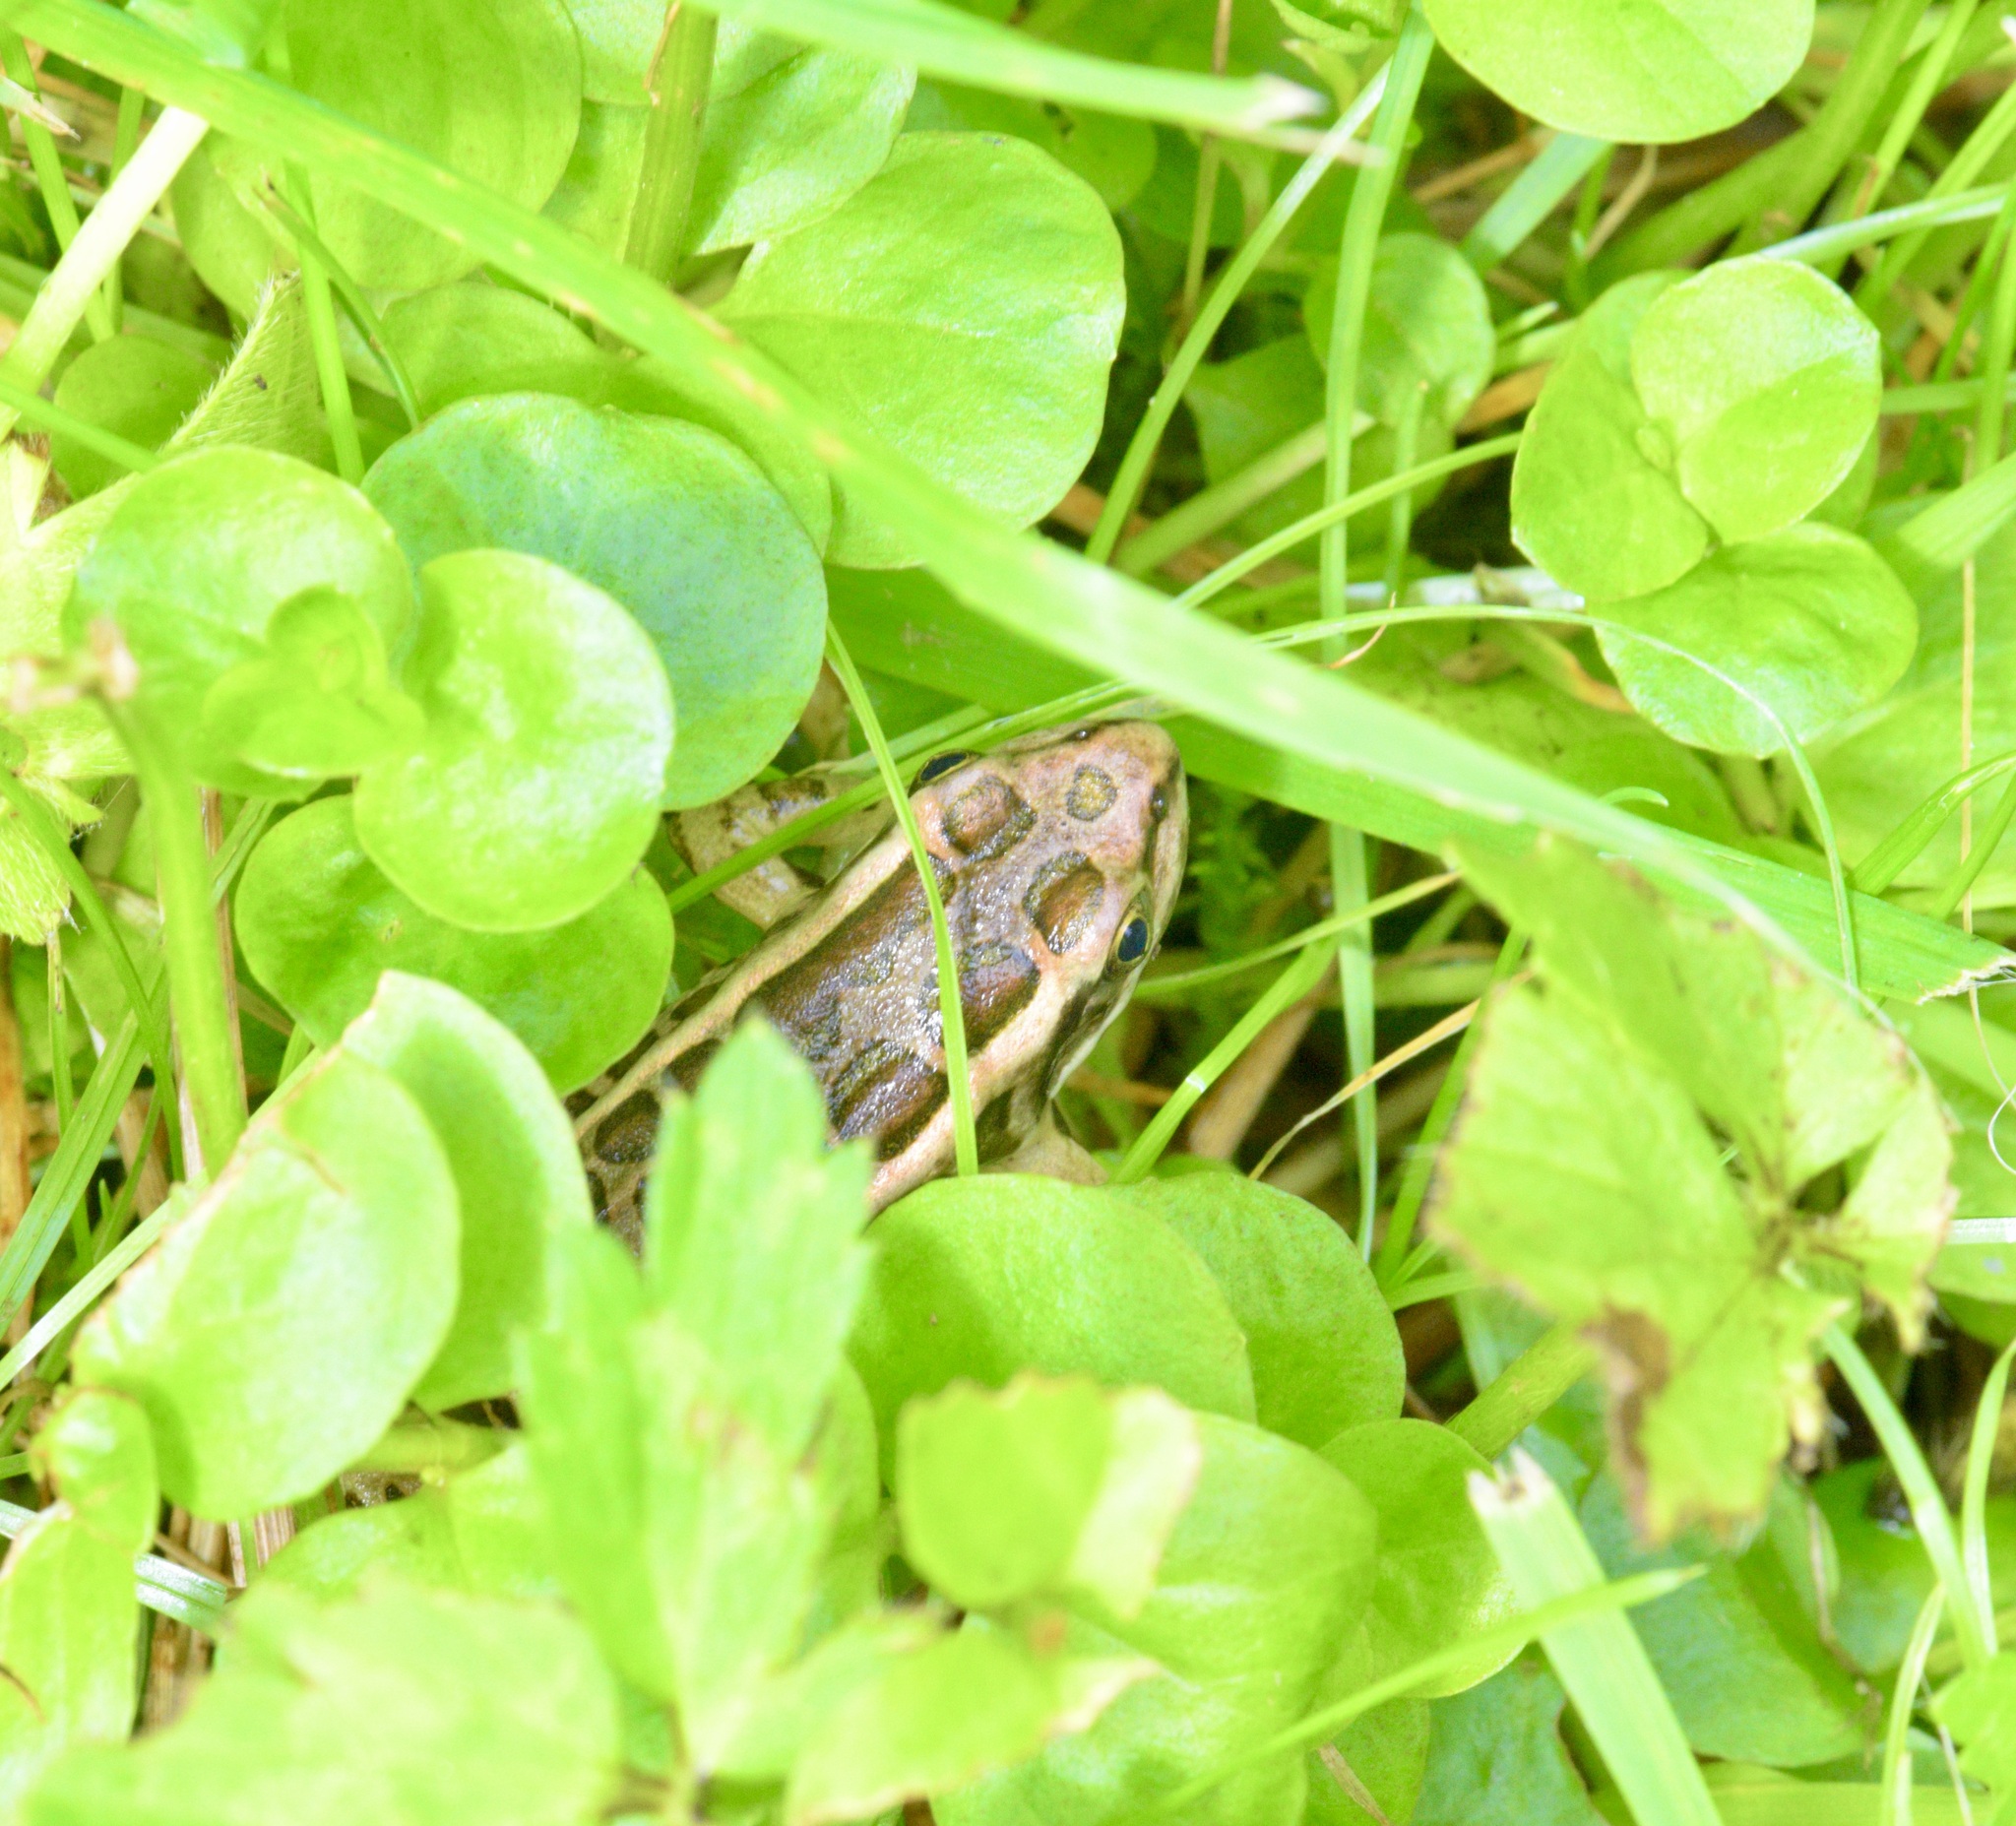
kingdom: Animalia
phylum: Chordata
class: Amphibia
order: Anura
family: Ranidae
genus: Lithobates
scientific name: Lithobates palustris
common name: Pickerel frog
